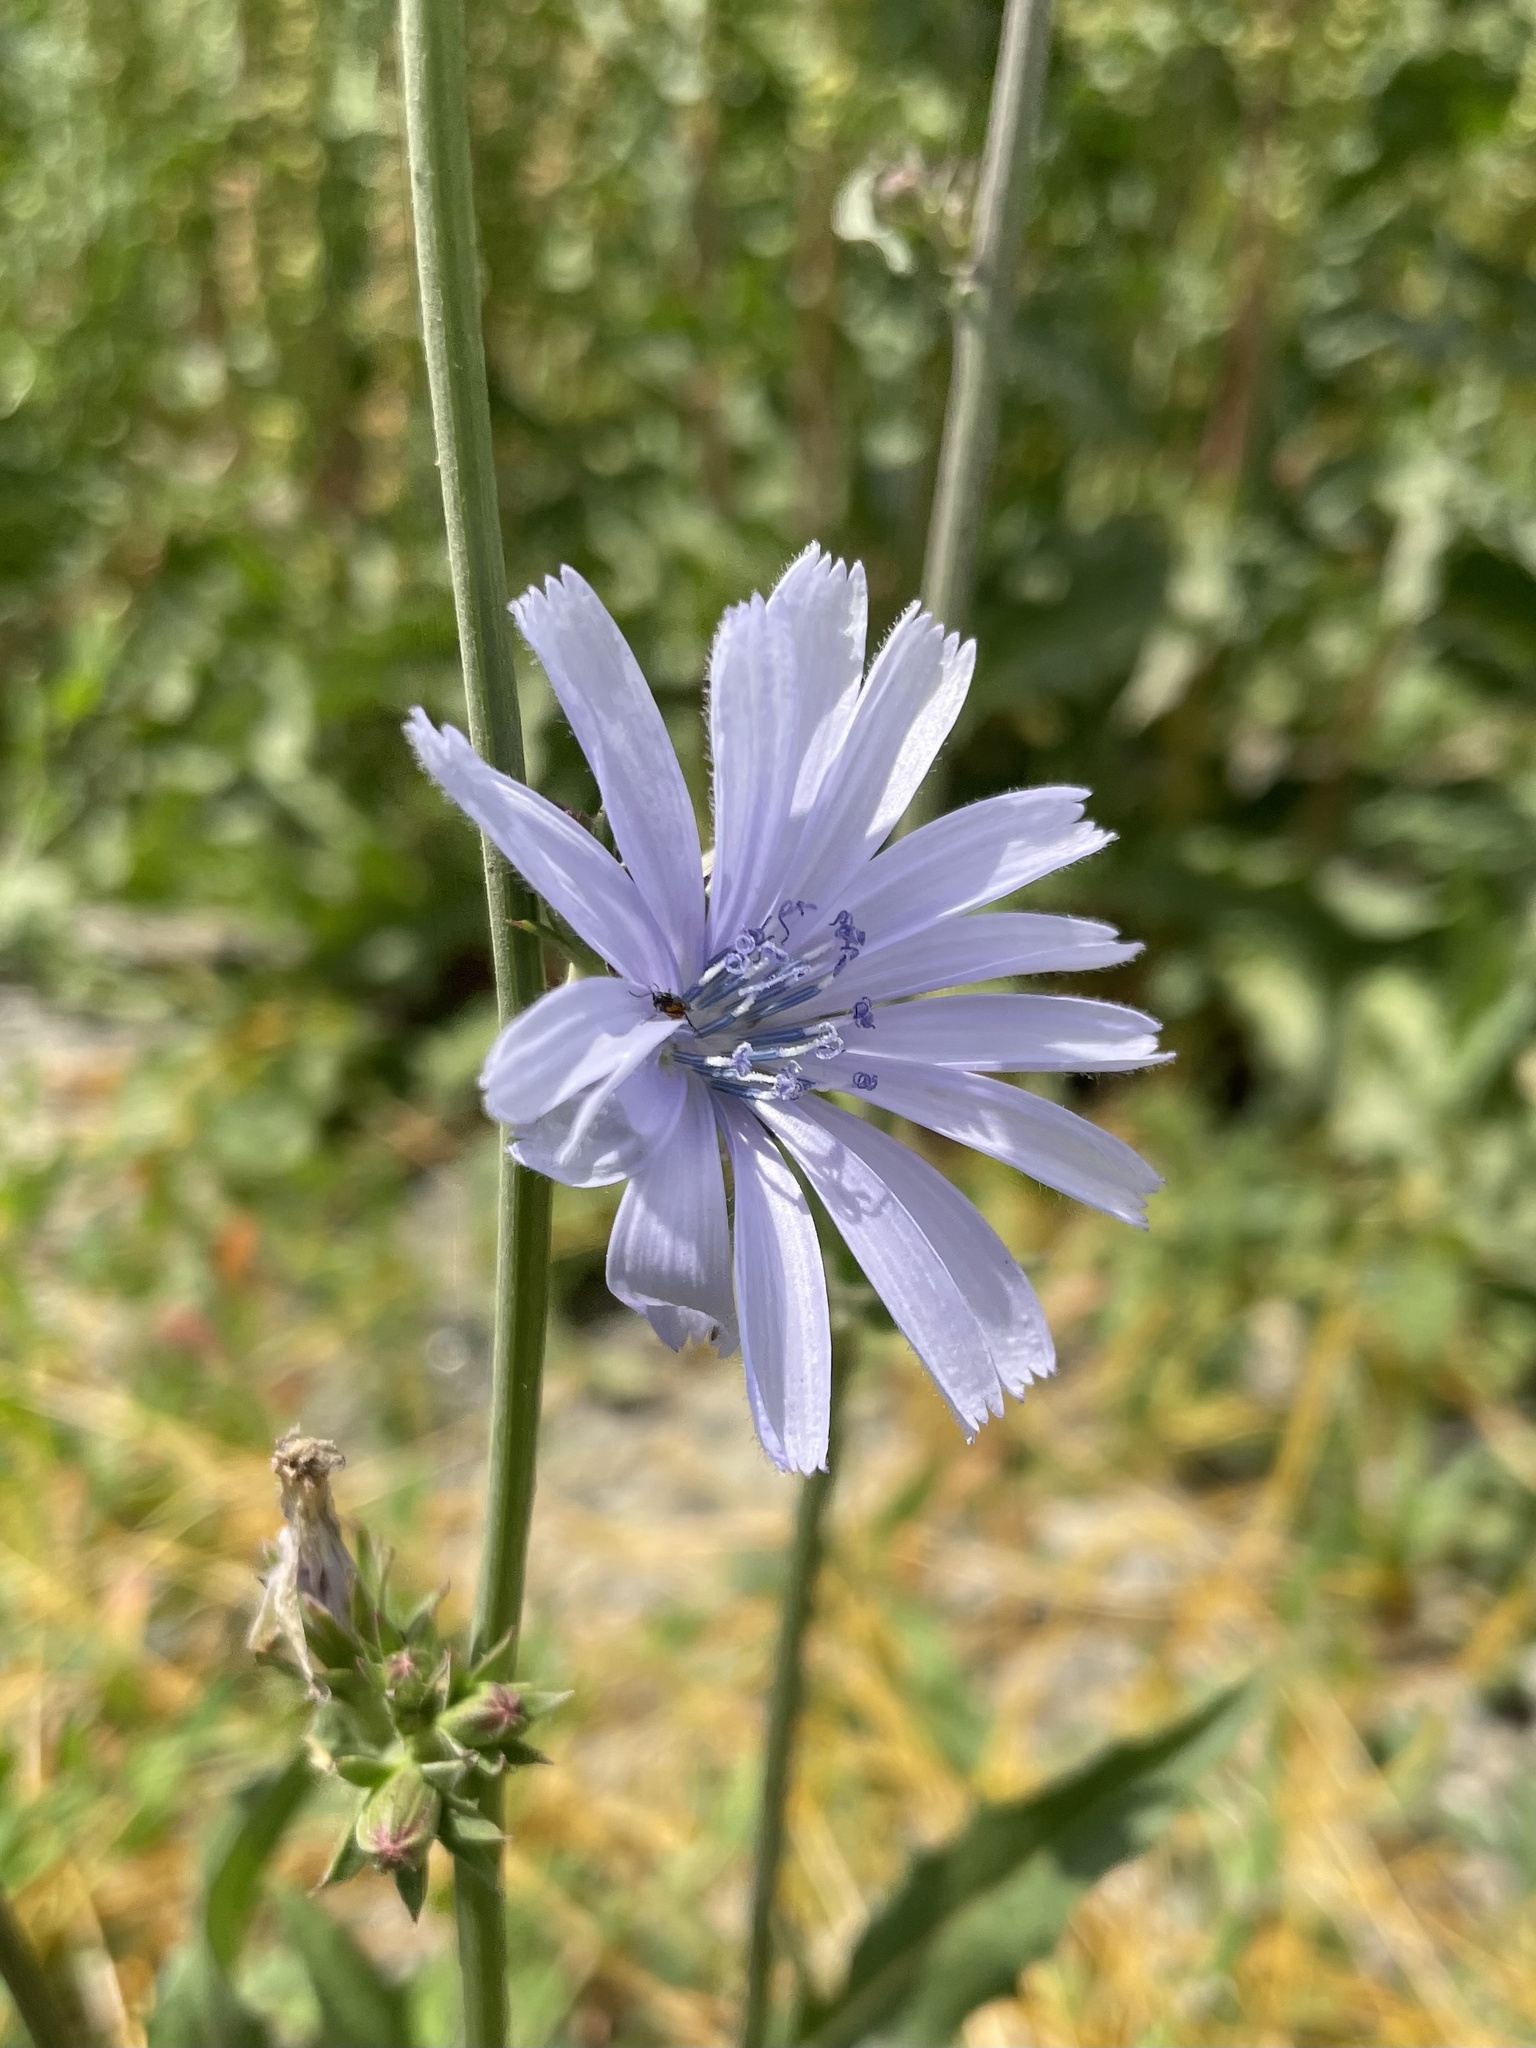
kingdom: Plantae
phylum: Tracheophyta
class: Magnoliopsida
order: Asterales
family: Asteraceae
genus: Cichorium
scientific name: Cichorium intybus
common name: Chicory
